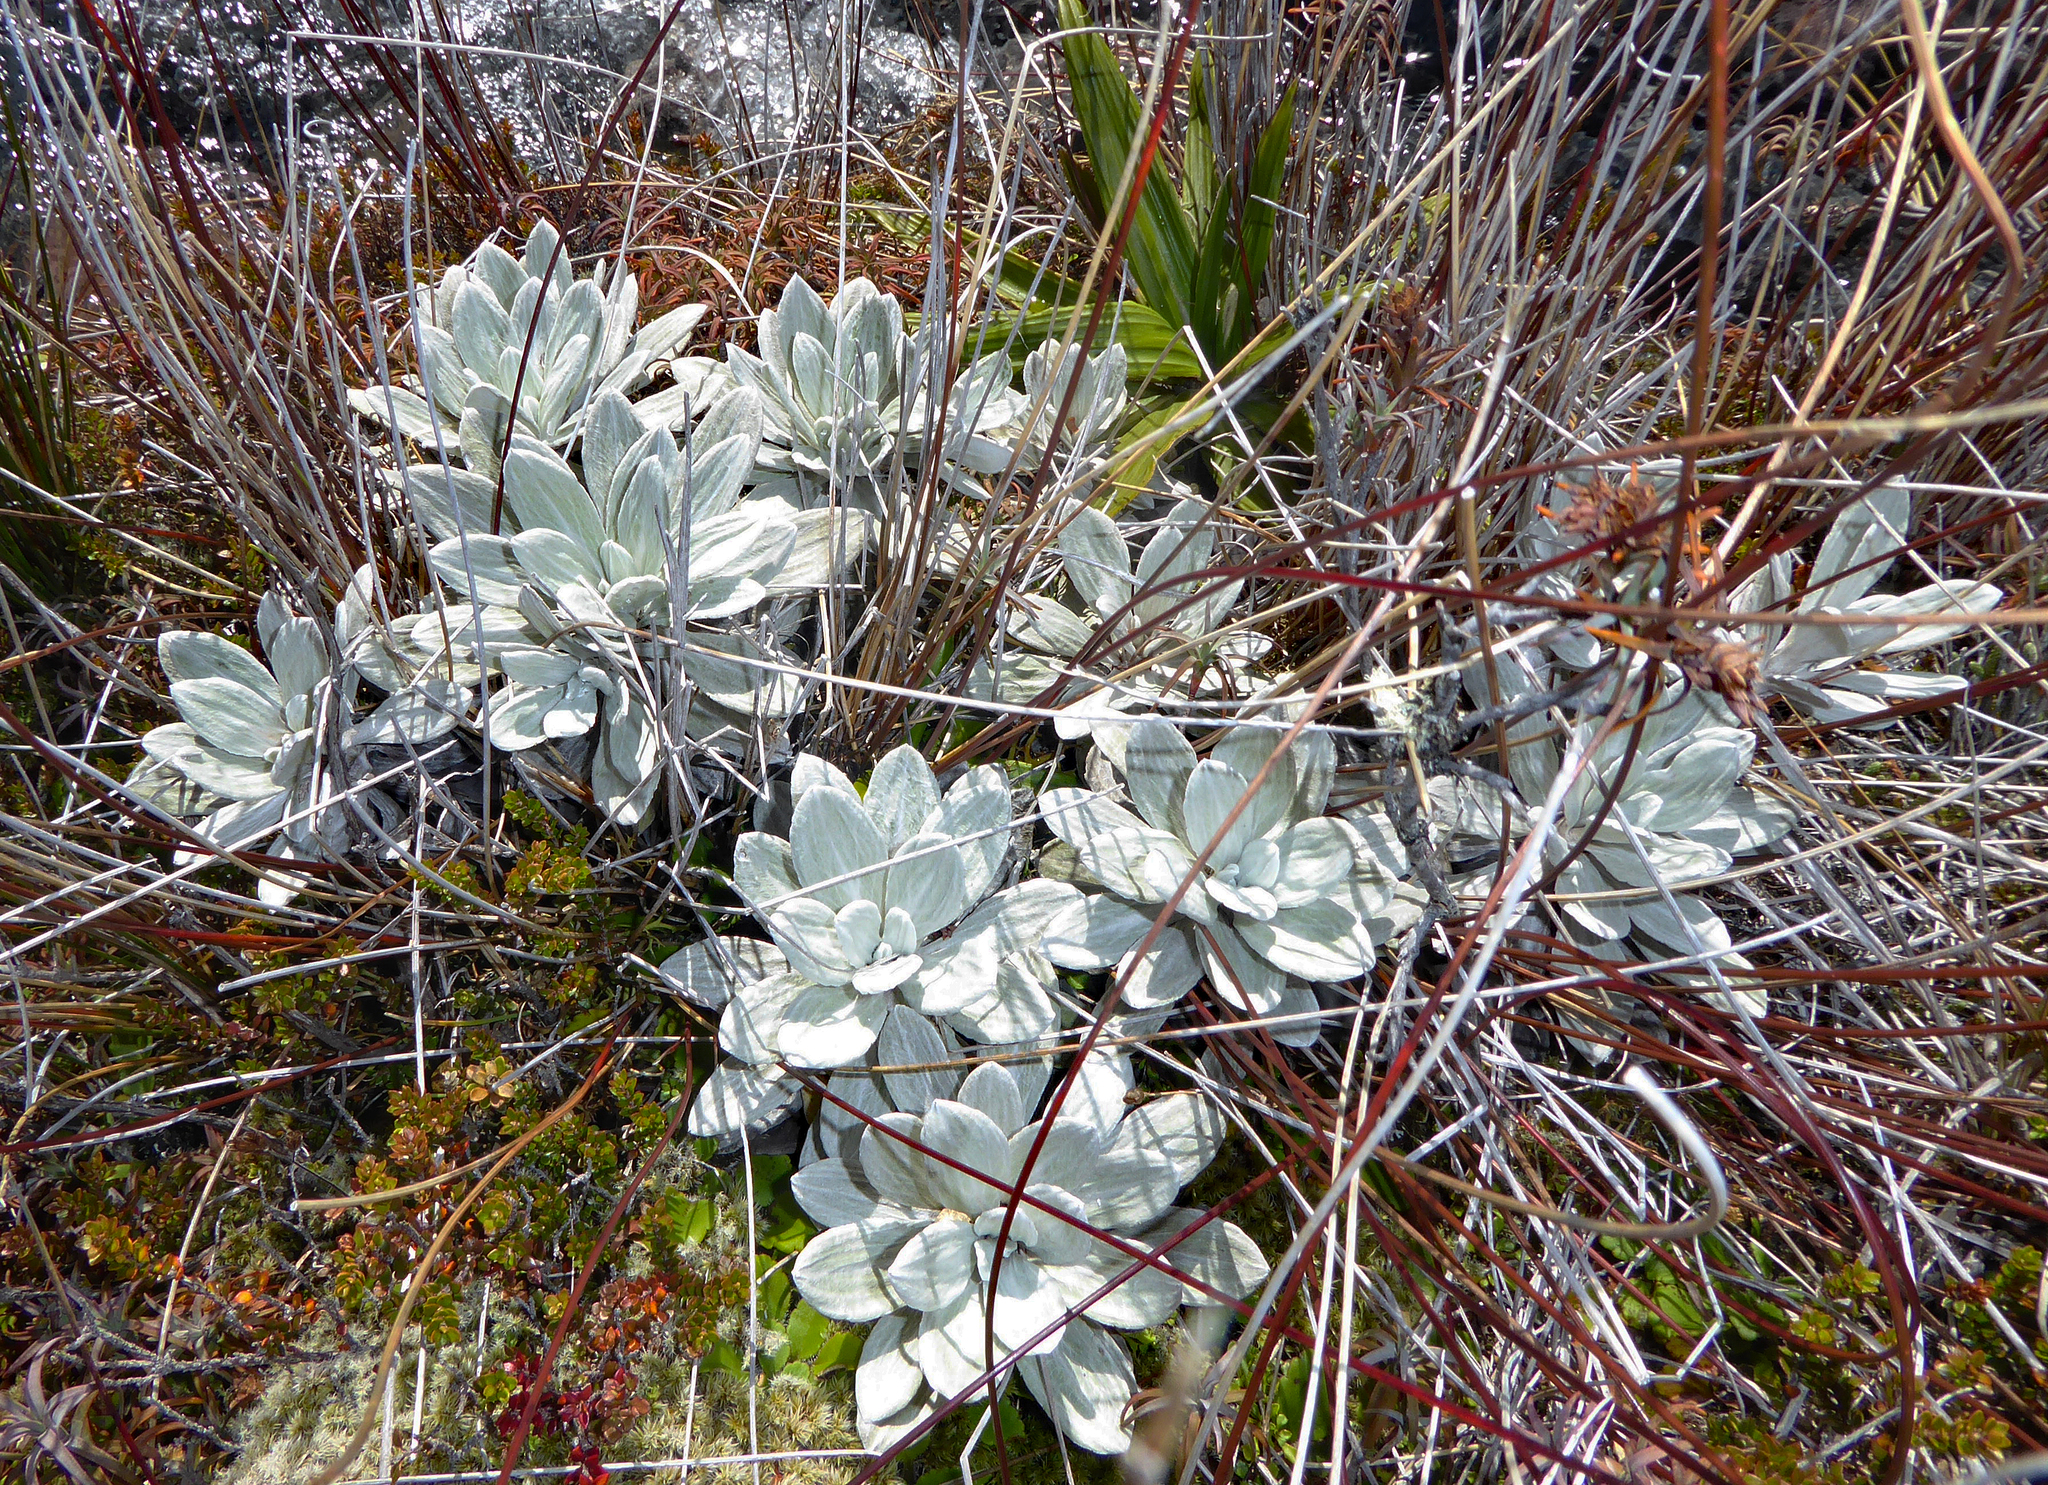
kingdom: Plantae
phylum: Tracheophyta
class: Magnoliopsida
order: Asterales
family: Asteraceae
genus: Celmisia
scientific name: Celmisia incana
